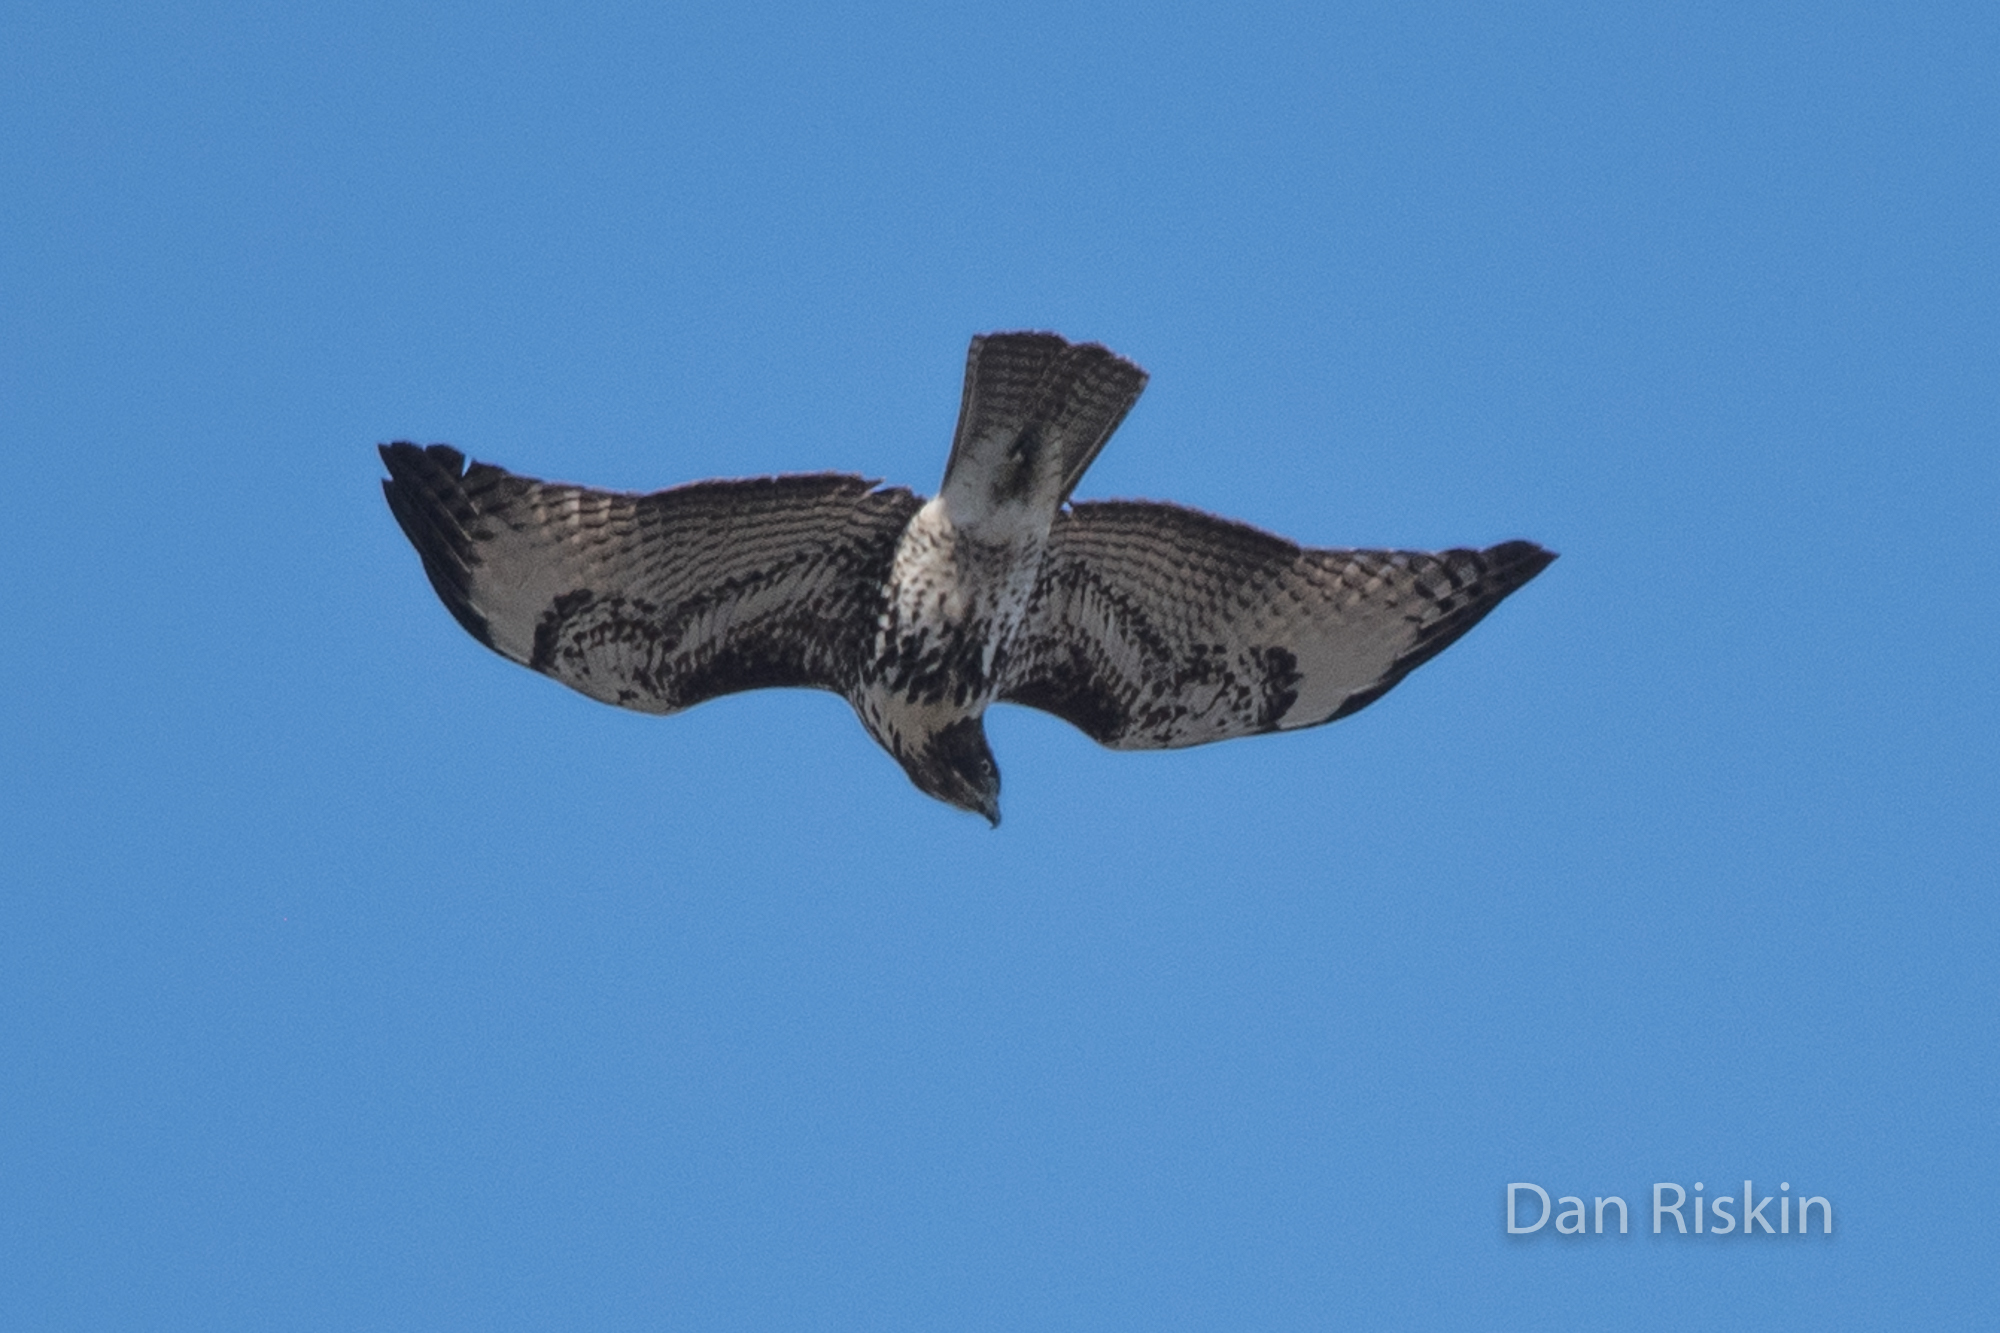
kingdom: Animalia
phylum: Chordata
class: Aves
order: Accipitriformes
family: Accipitridae
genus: Buteo
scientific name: Buteo jamaicensis
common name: Red-tailed hawk
